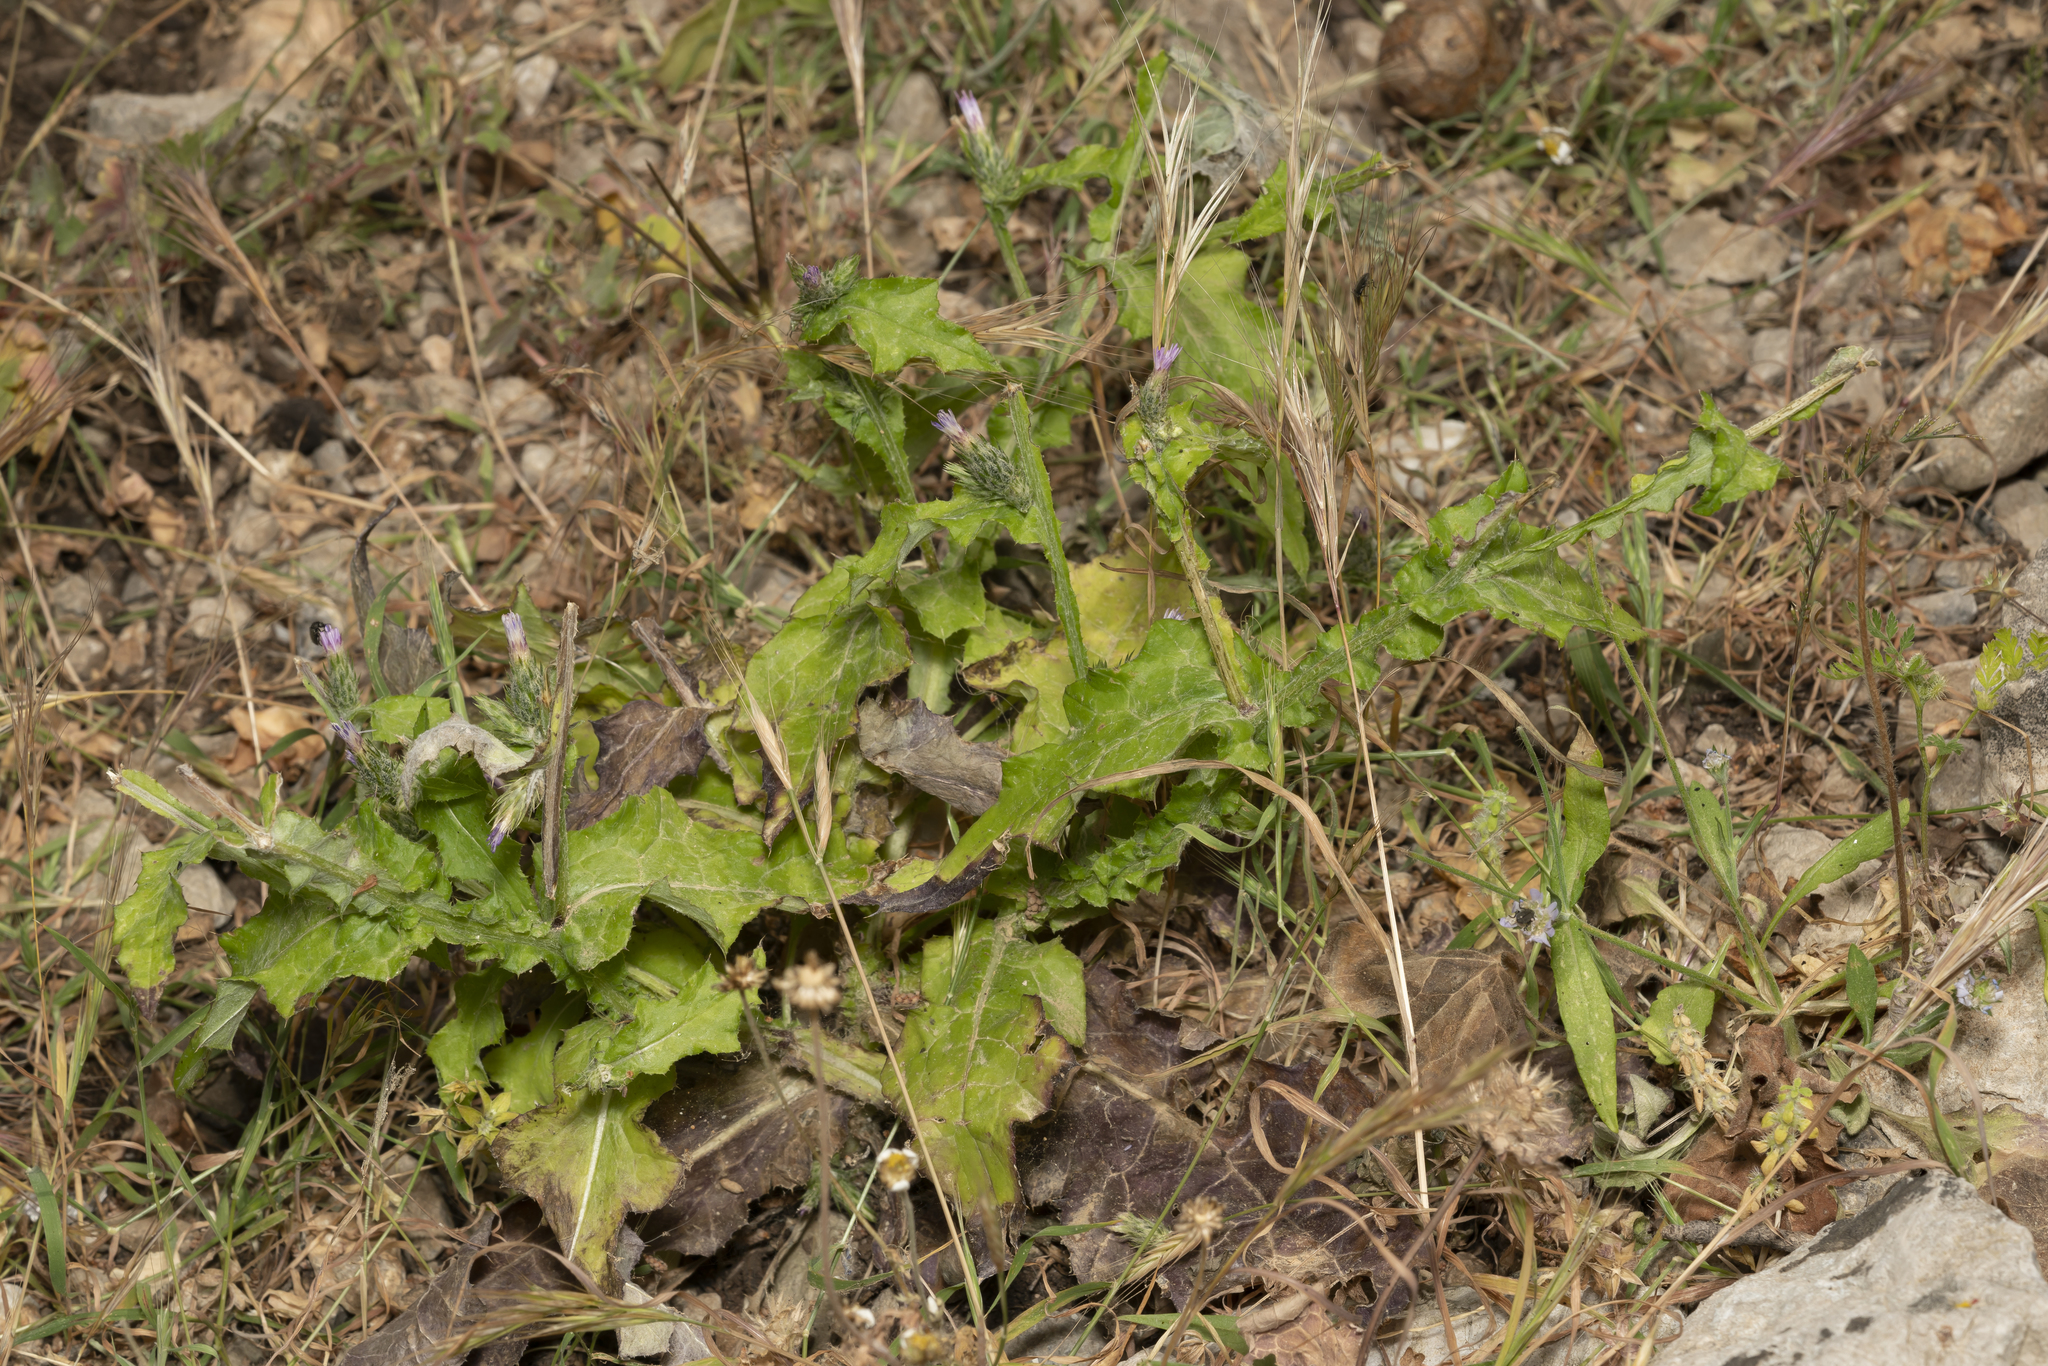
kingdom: Plantae
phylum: Tracheophyta
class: Magnoliopsida
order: Asterales
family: Asteraceae
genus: Carduus
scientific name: Carduus argentatus
